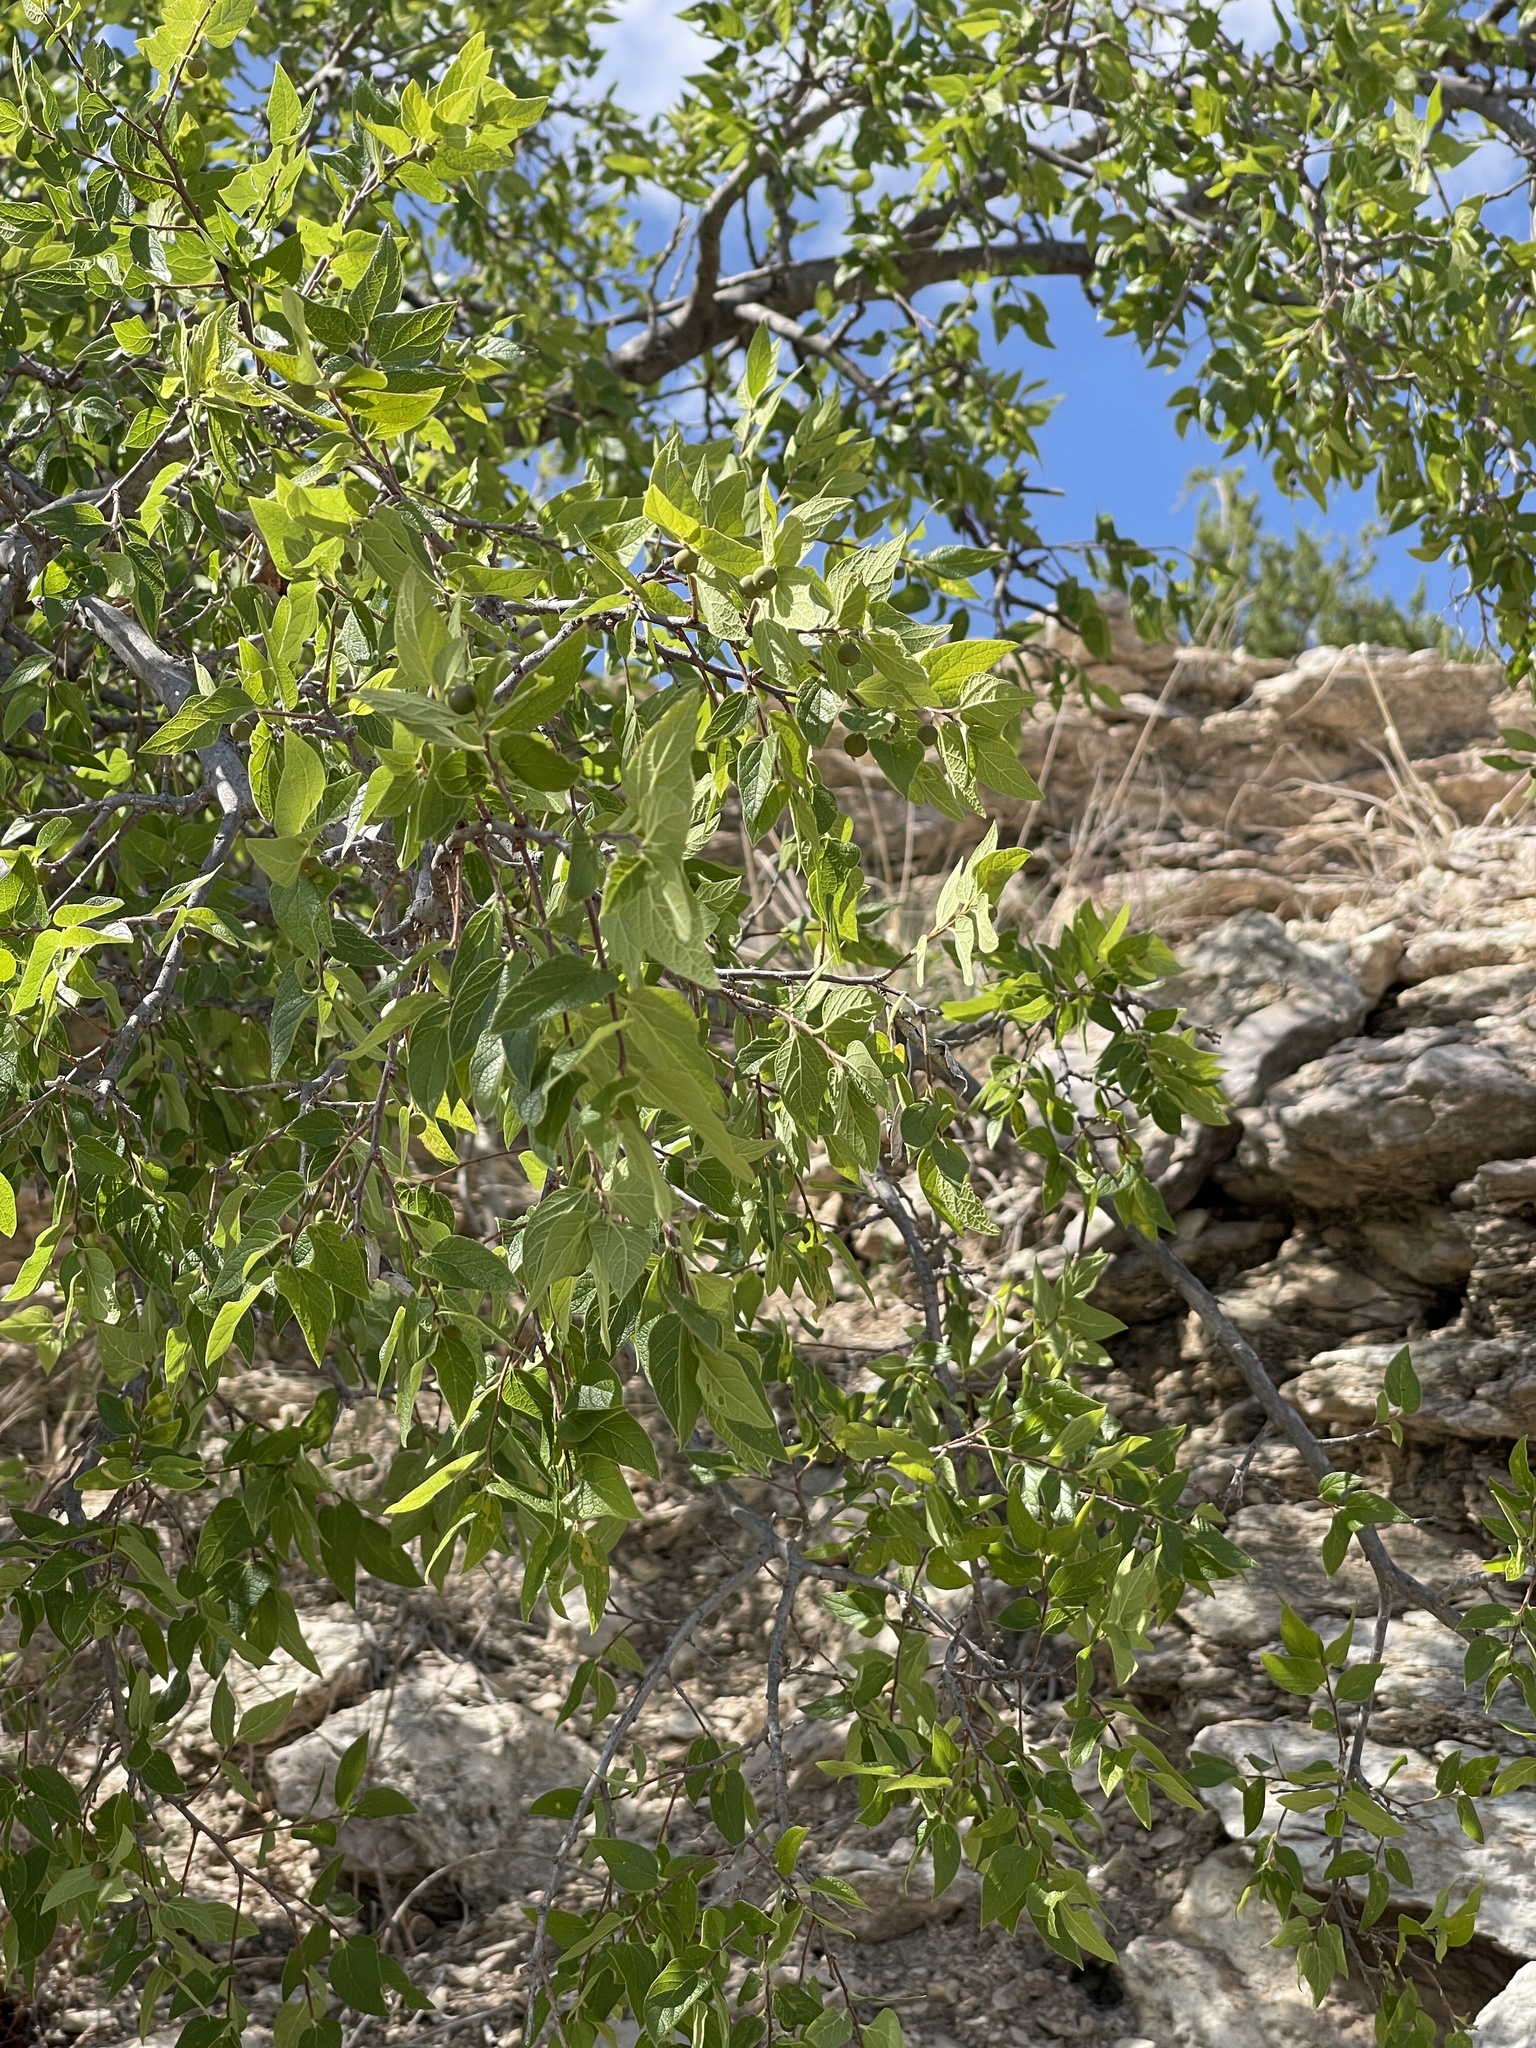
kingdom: Plantae
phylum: Tracheophyta
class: Magnoliopsida
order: Rosales
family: Cannabaceae
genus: Celtis
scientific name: Celtis reticulata
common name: Netleaf hackberry
